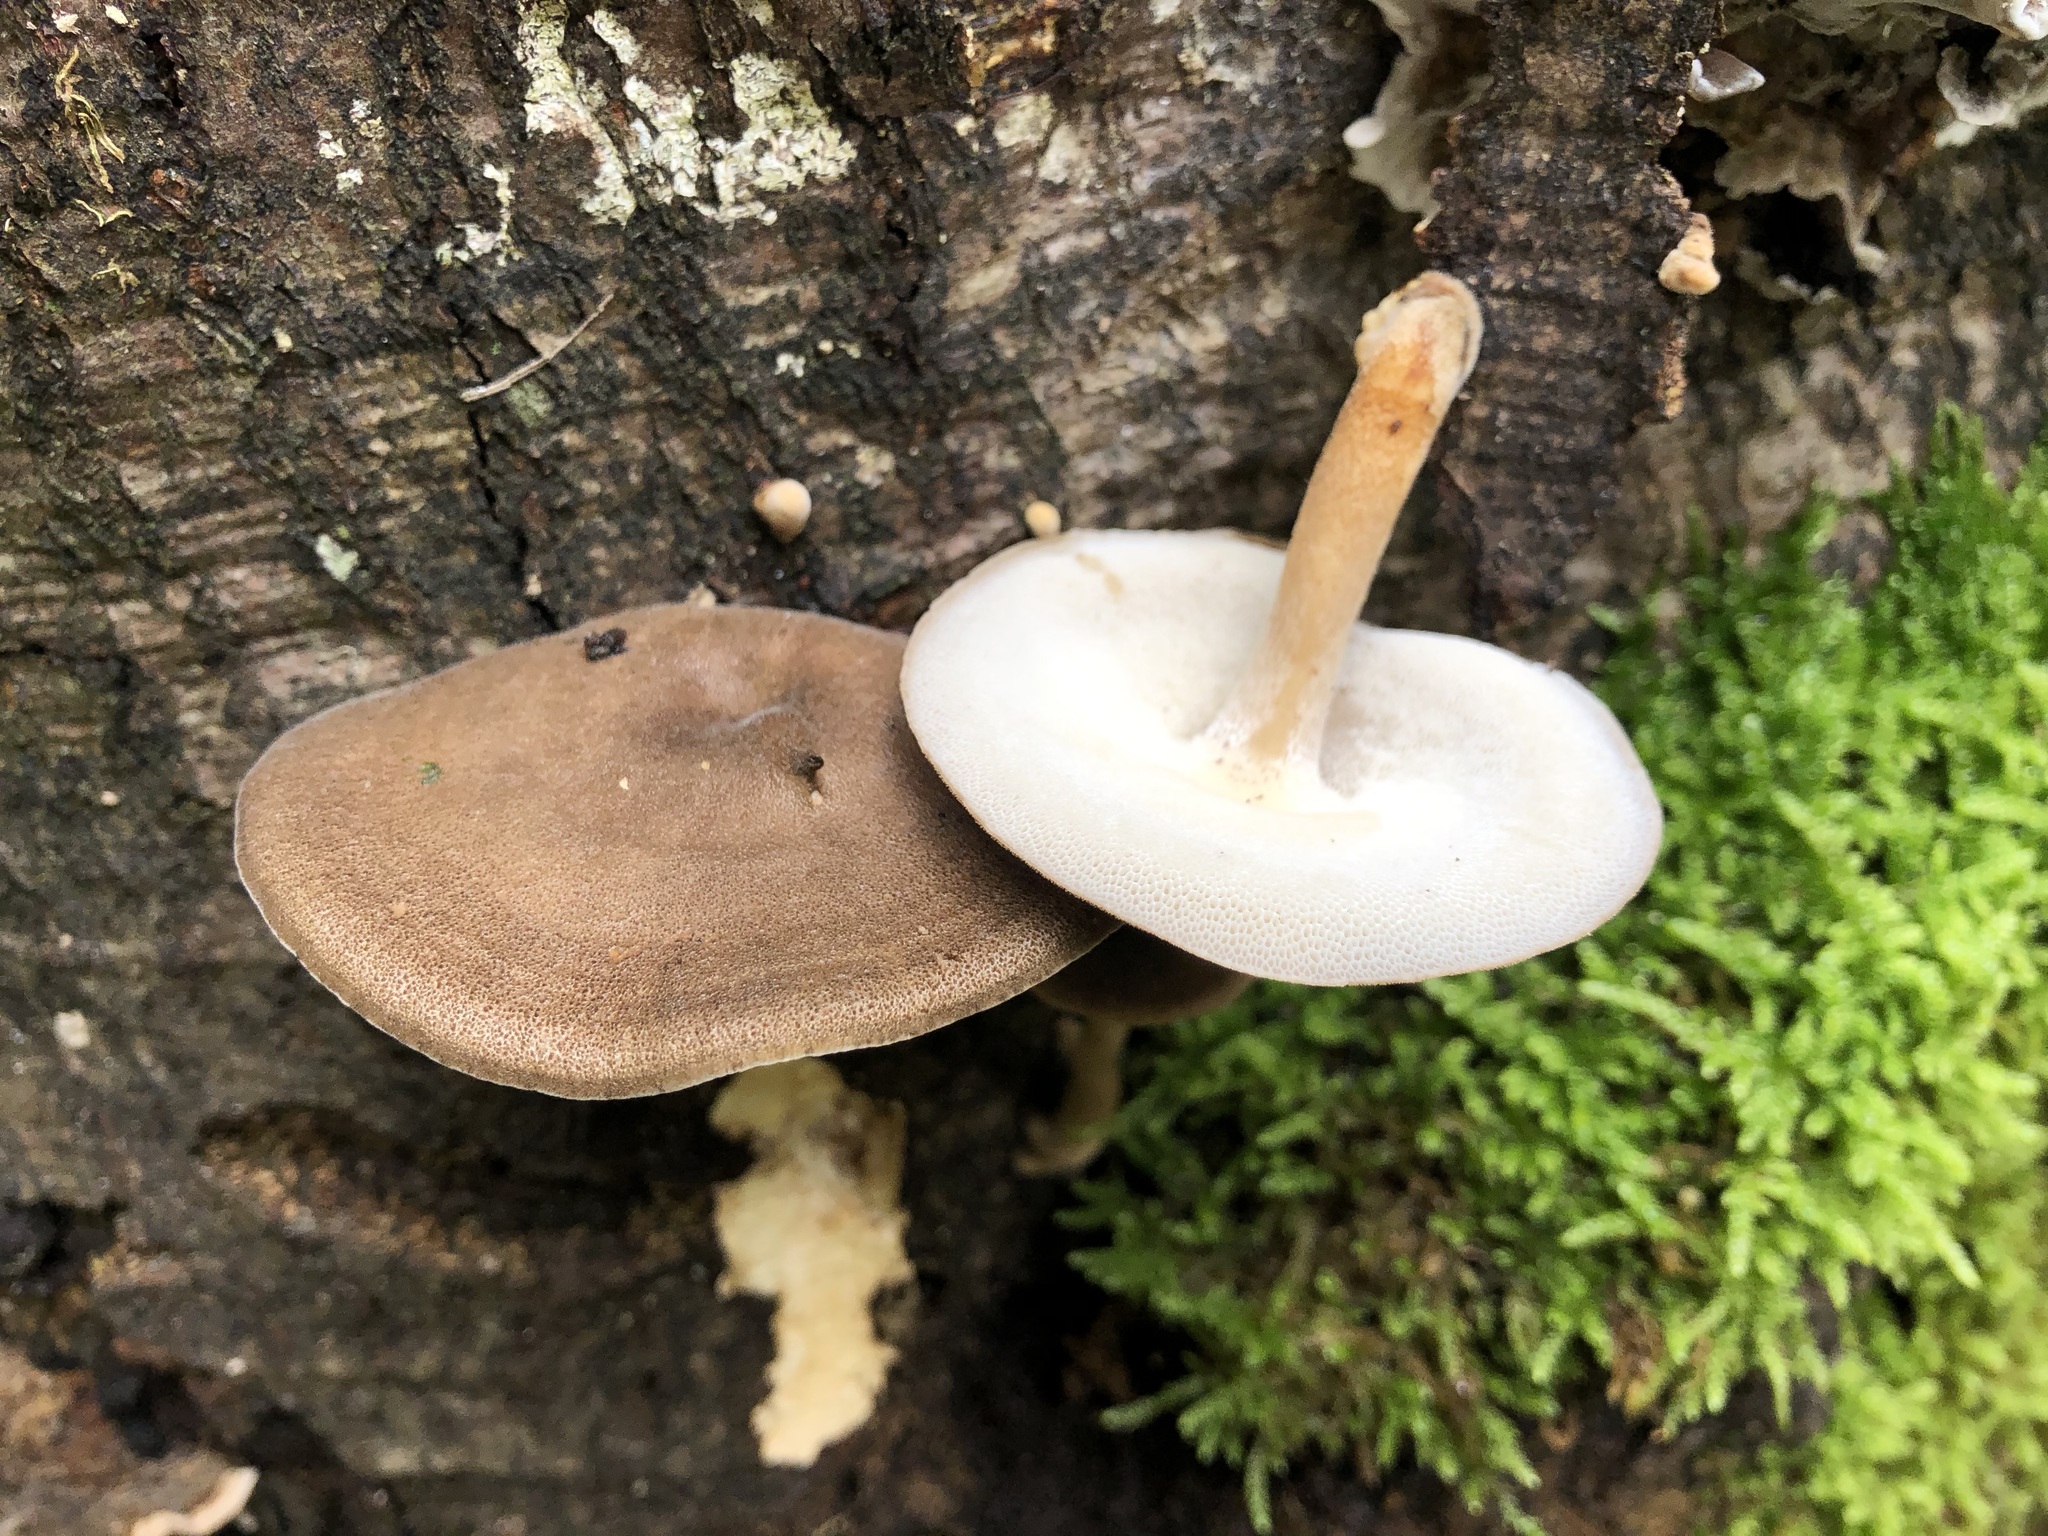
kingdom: Fungi
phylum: Basidiomycota
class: Agaricomycetes
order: Polyporales
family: Polyporaceae
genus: Lentinus
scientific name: Lentinus brumalis
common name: Winter polypore
